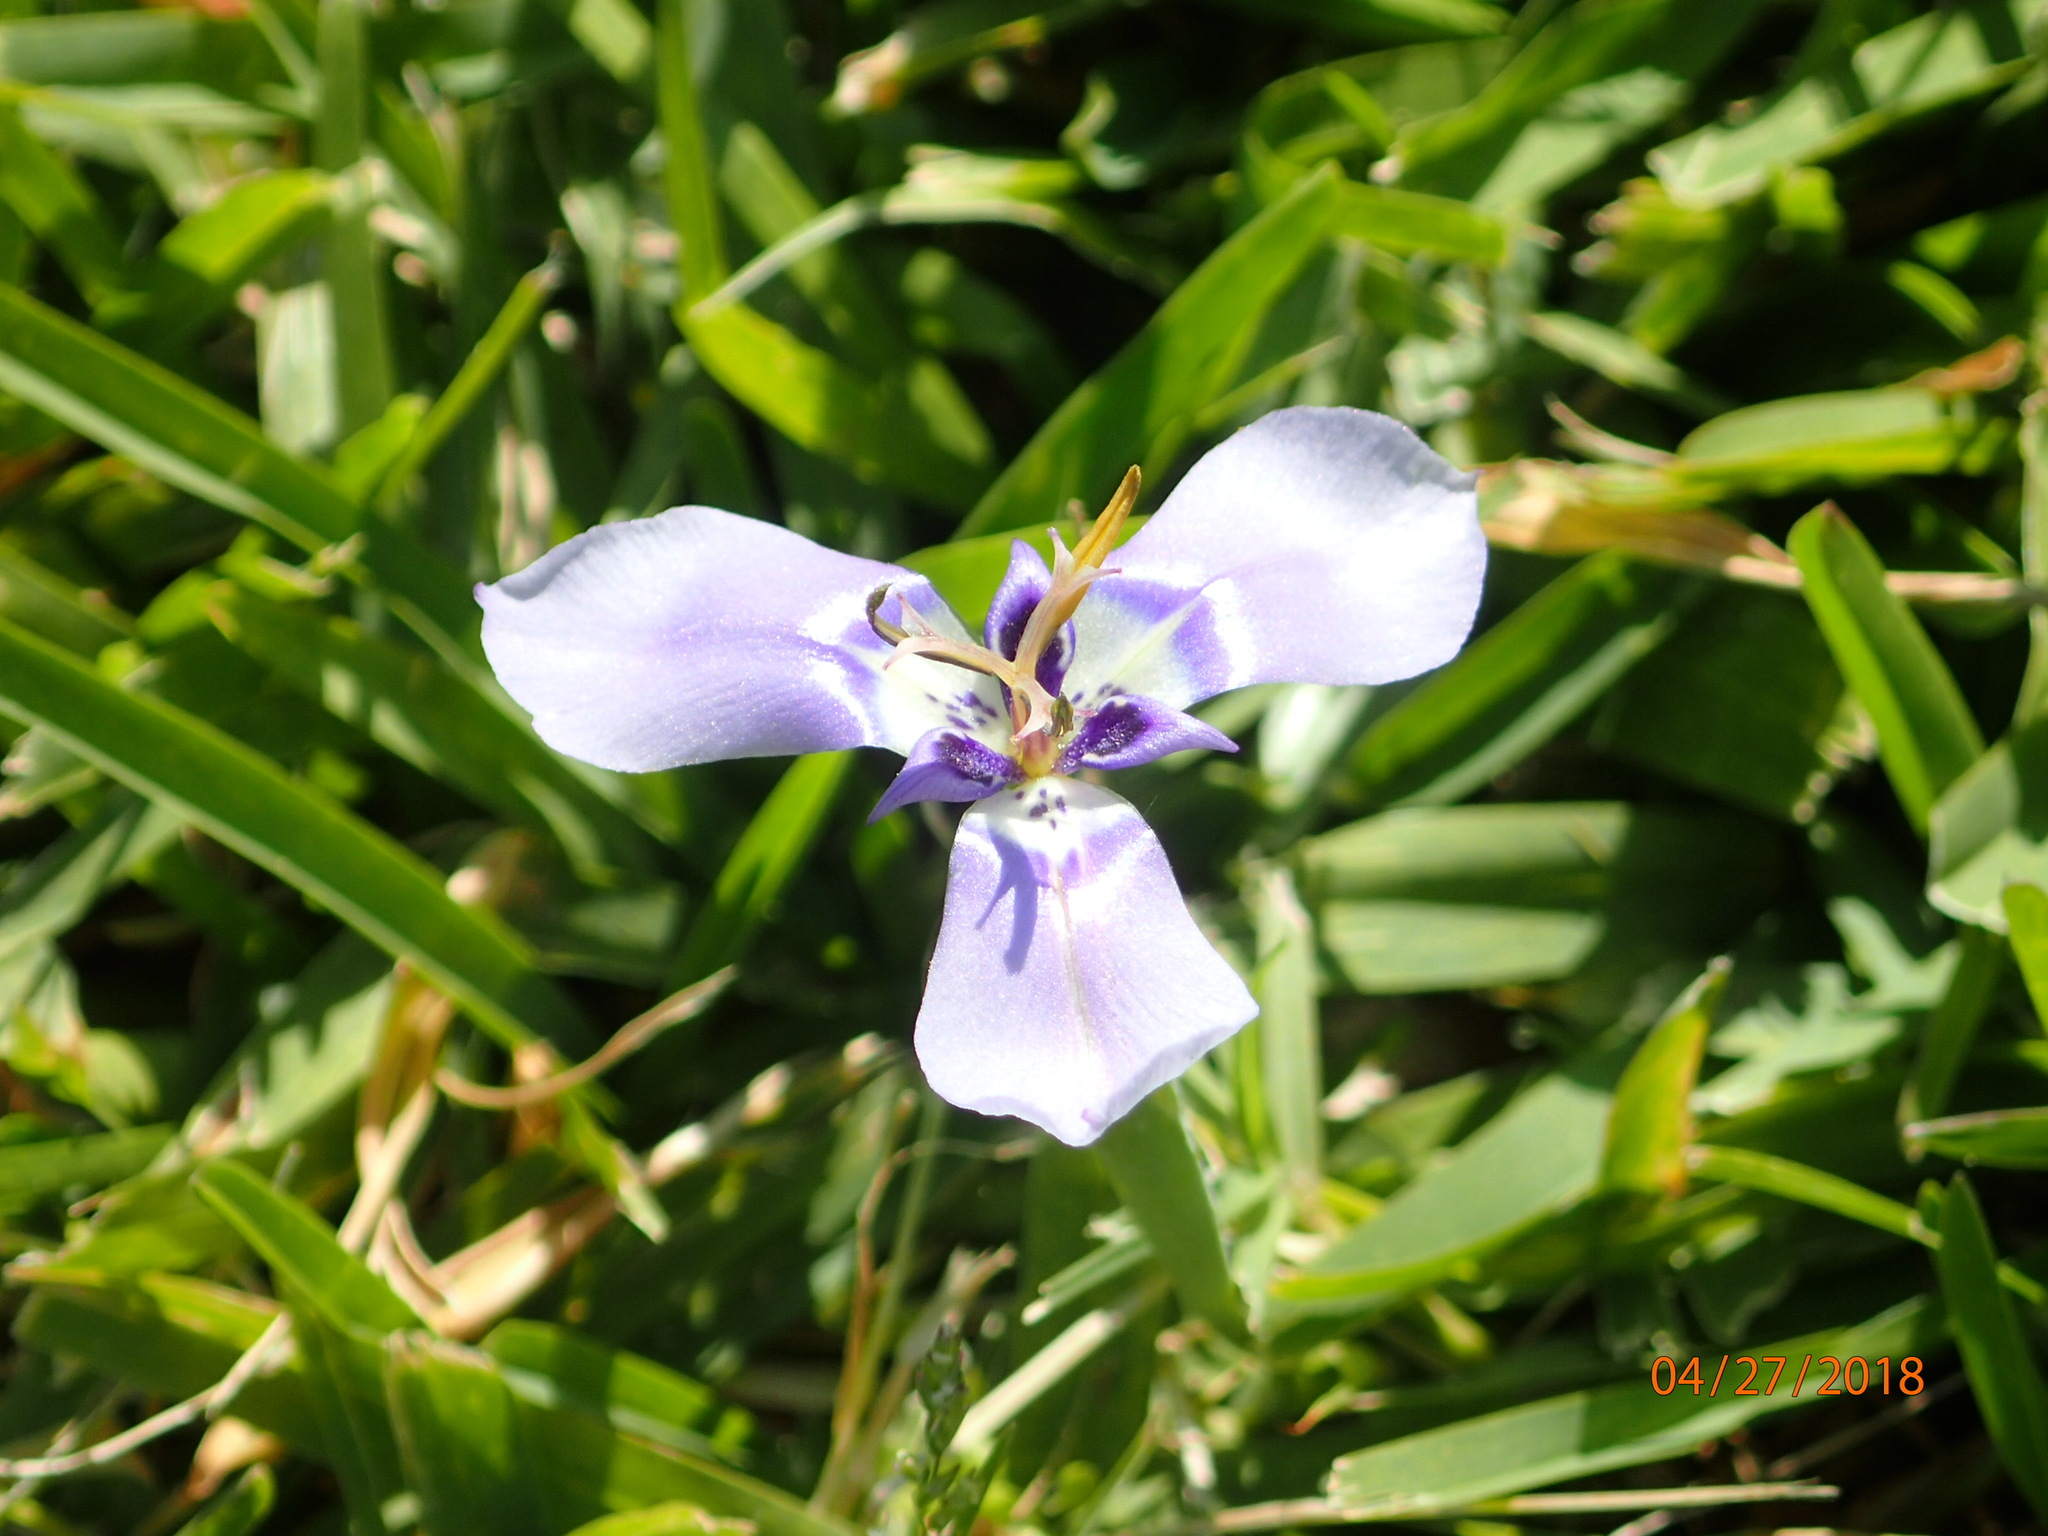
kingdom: Plantae
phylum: Tracheophyta
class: Liliopsida
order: Asparagales
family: Iridaceae
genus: Herbertia
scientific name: Herbertia lahue
